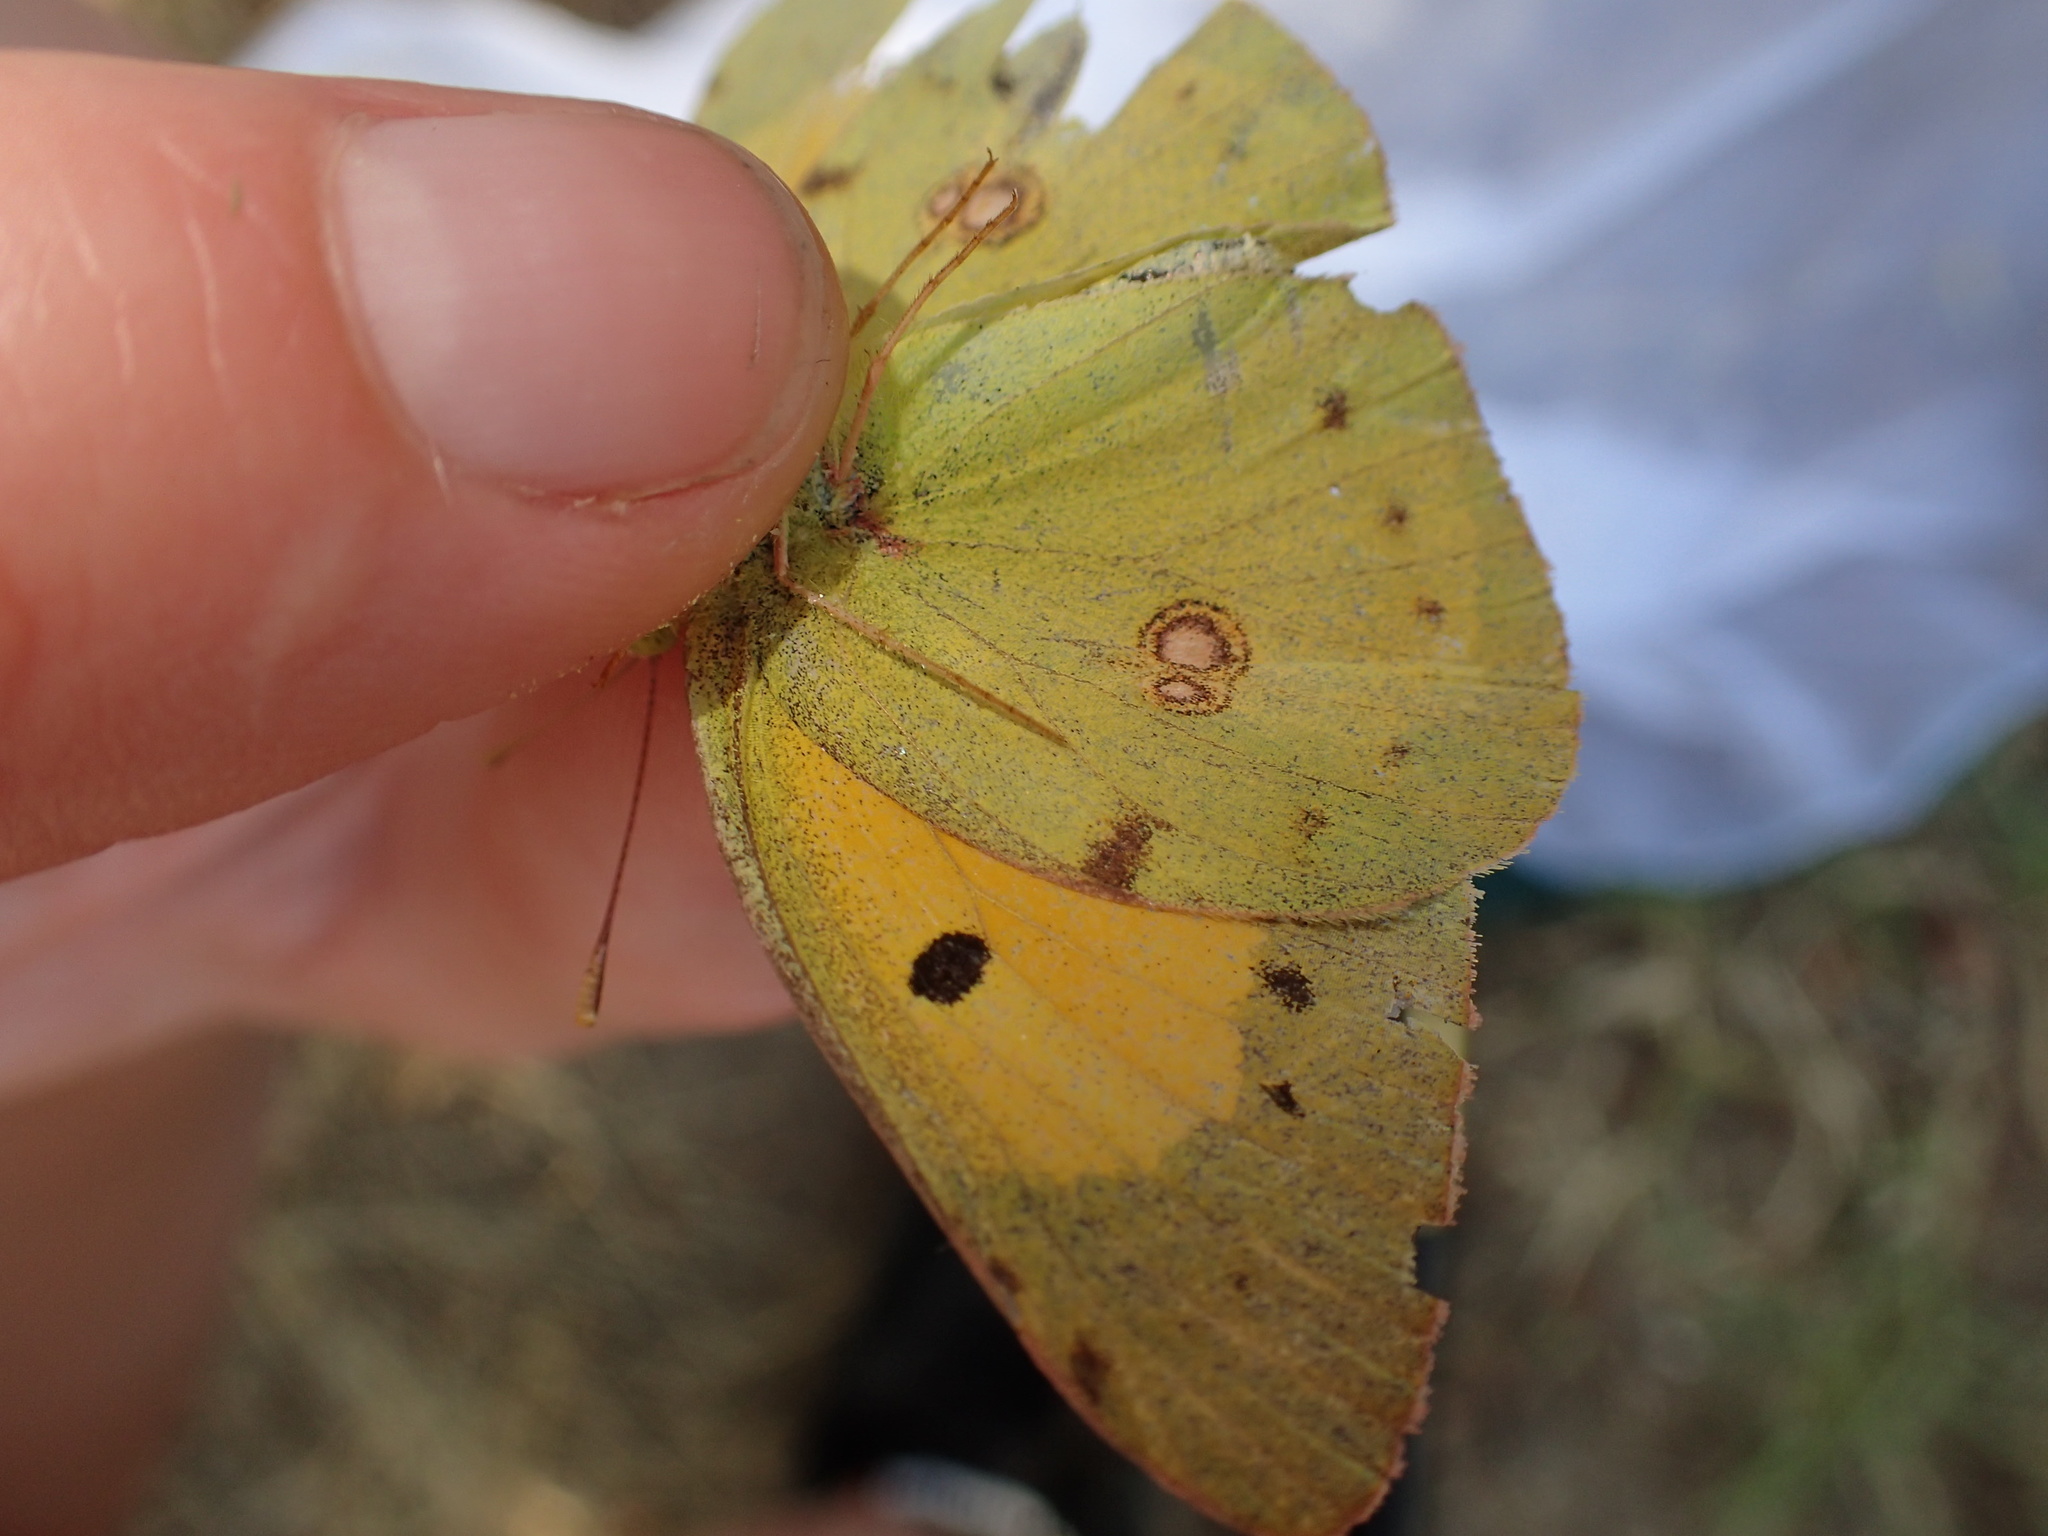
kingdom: Animalia
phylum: Arthropoda
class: Insecta
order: Lepidoptera
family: Pieridae
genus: Colias
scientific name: Colias croceus
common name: Clouded yellow
